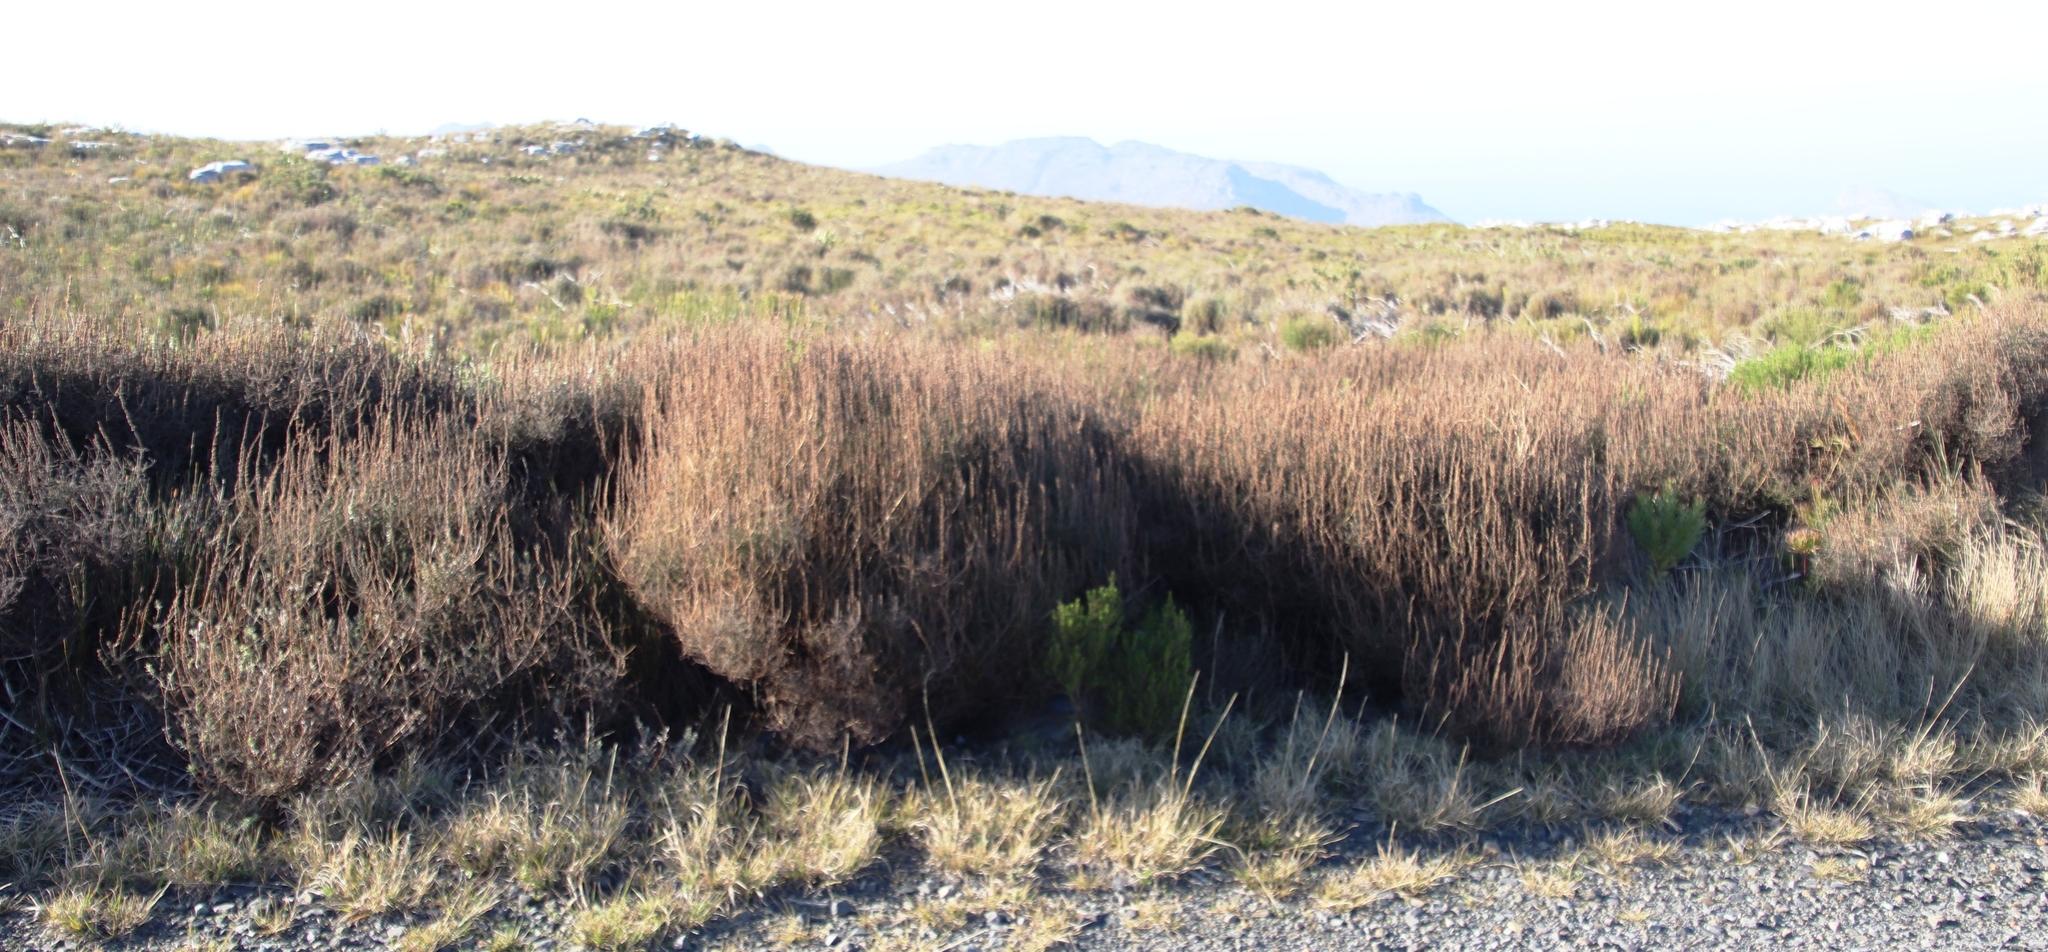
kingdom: Plantae
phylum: Tracheophyta
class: Magnoliopsida
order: Asterales
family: Asteraceae
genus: Seriphium
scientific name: Seriphium cinereum
